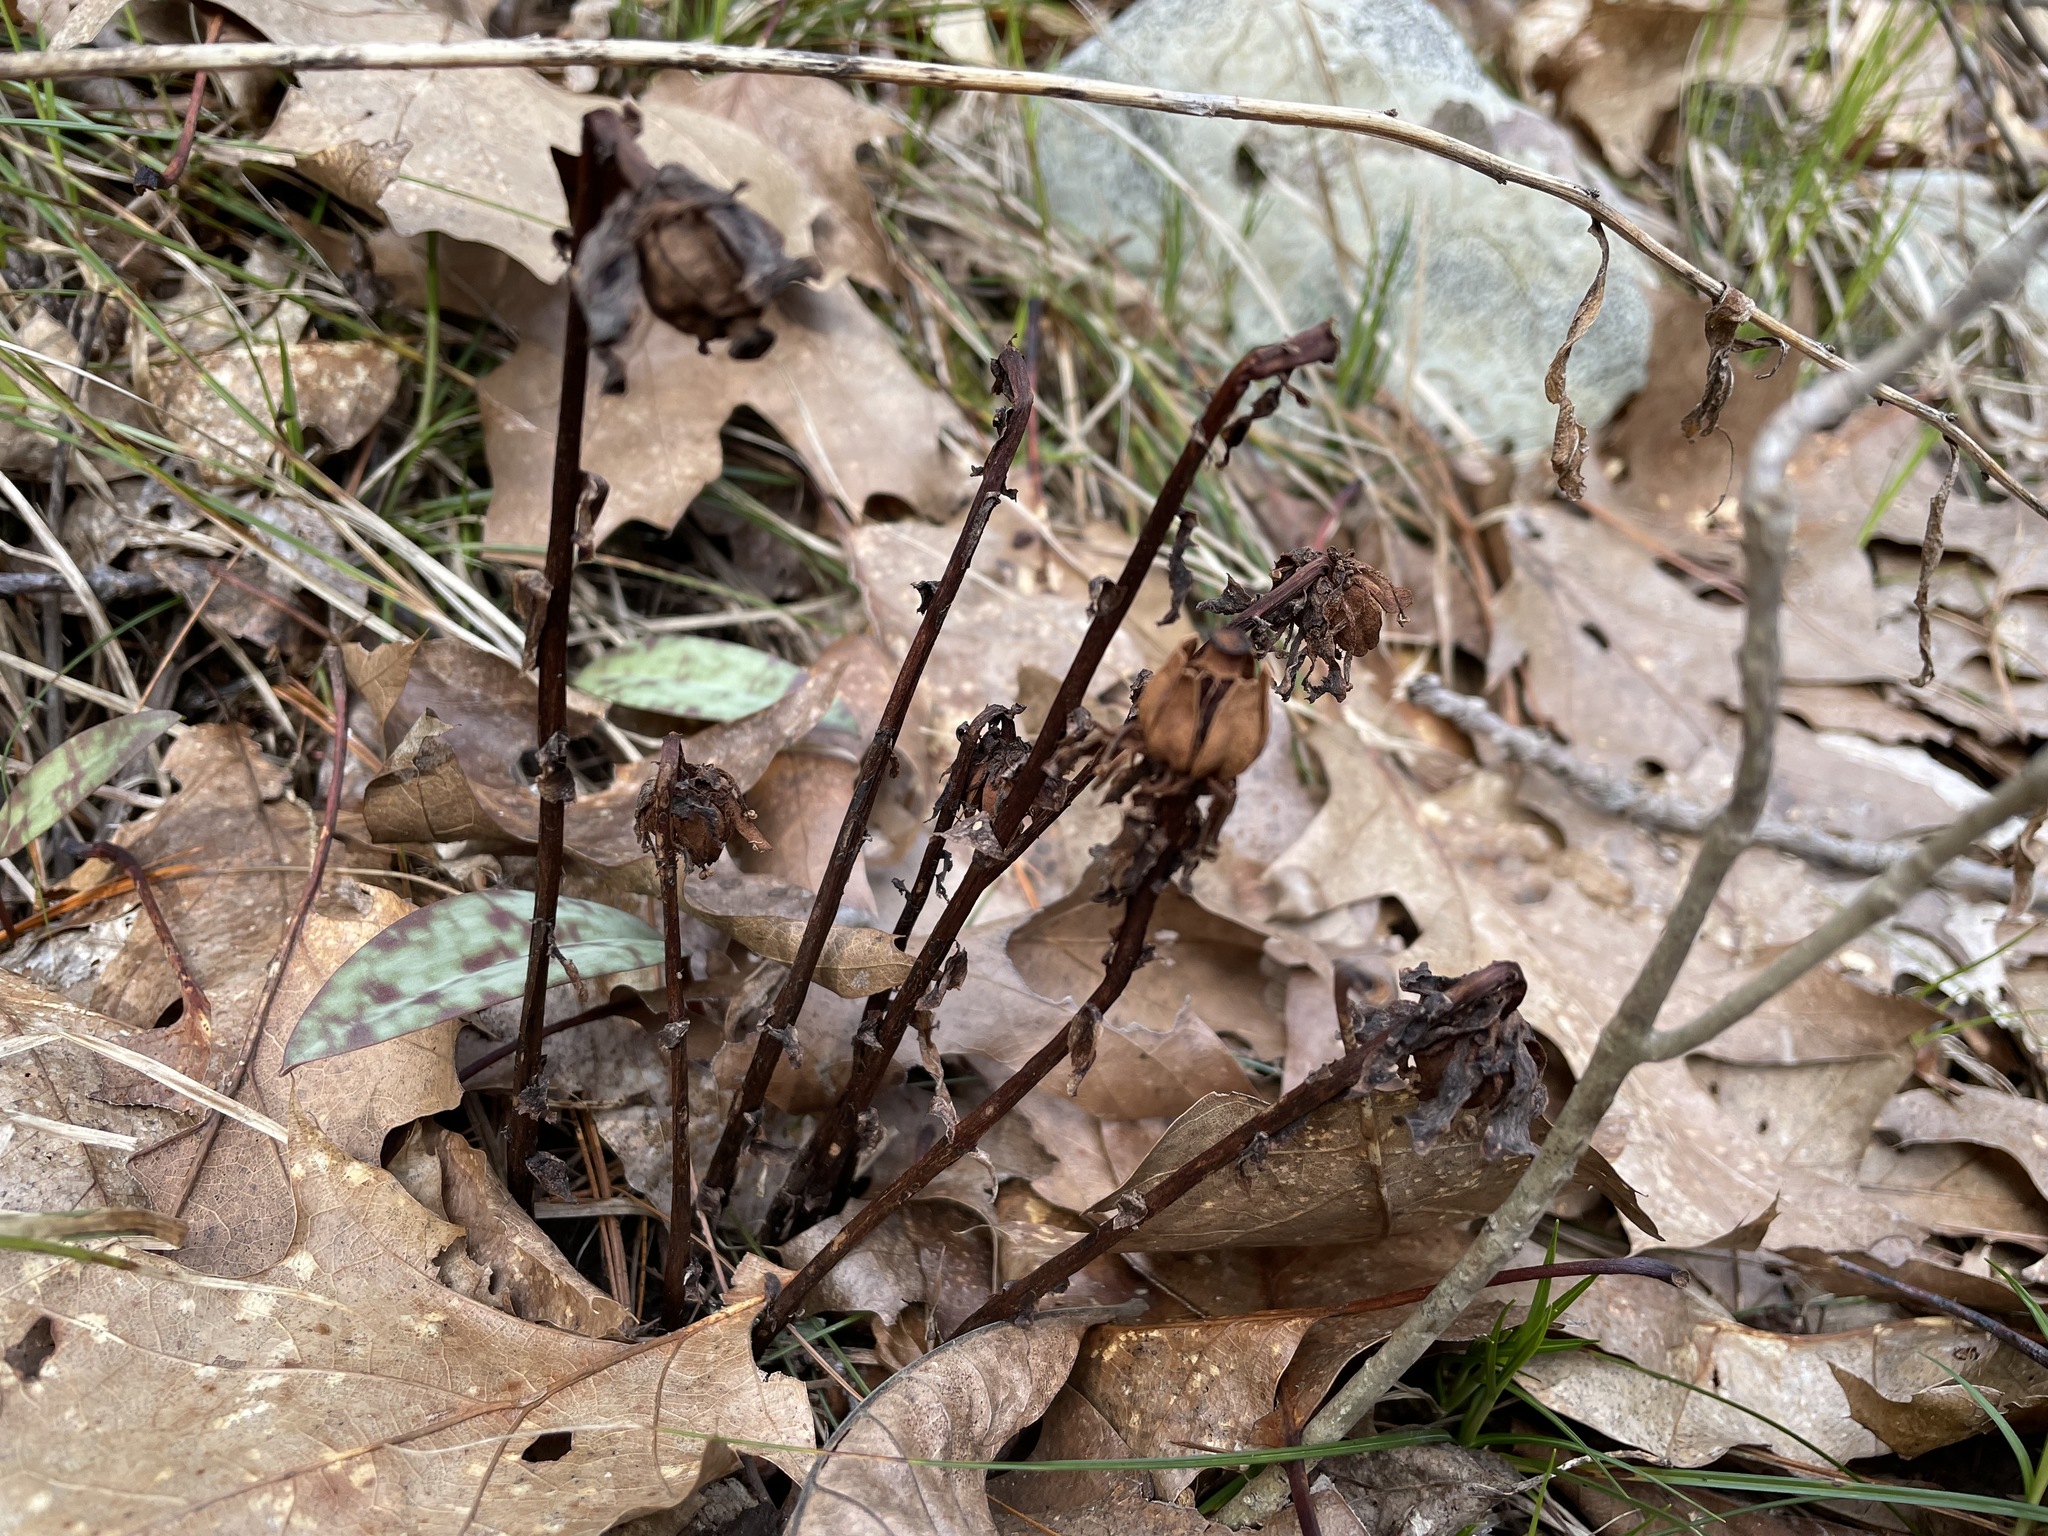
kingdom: Plantae
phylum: Tracheophyta
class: Magnoliopsida
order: Ericales
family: Ericaceae
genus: Monotropa
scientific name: Monotropa uniflora
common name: Convulsion root
